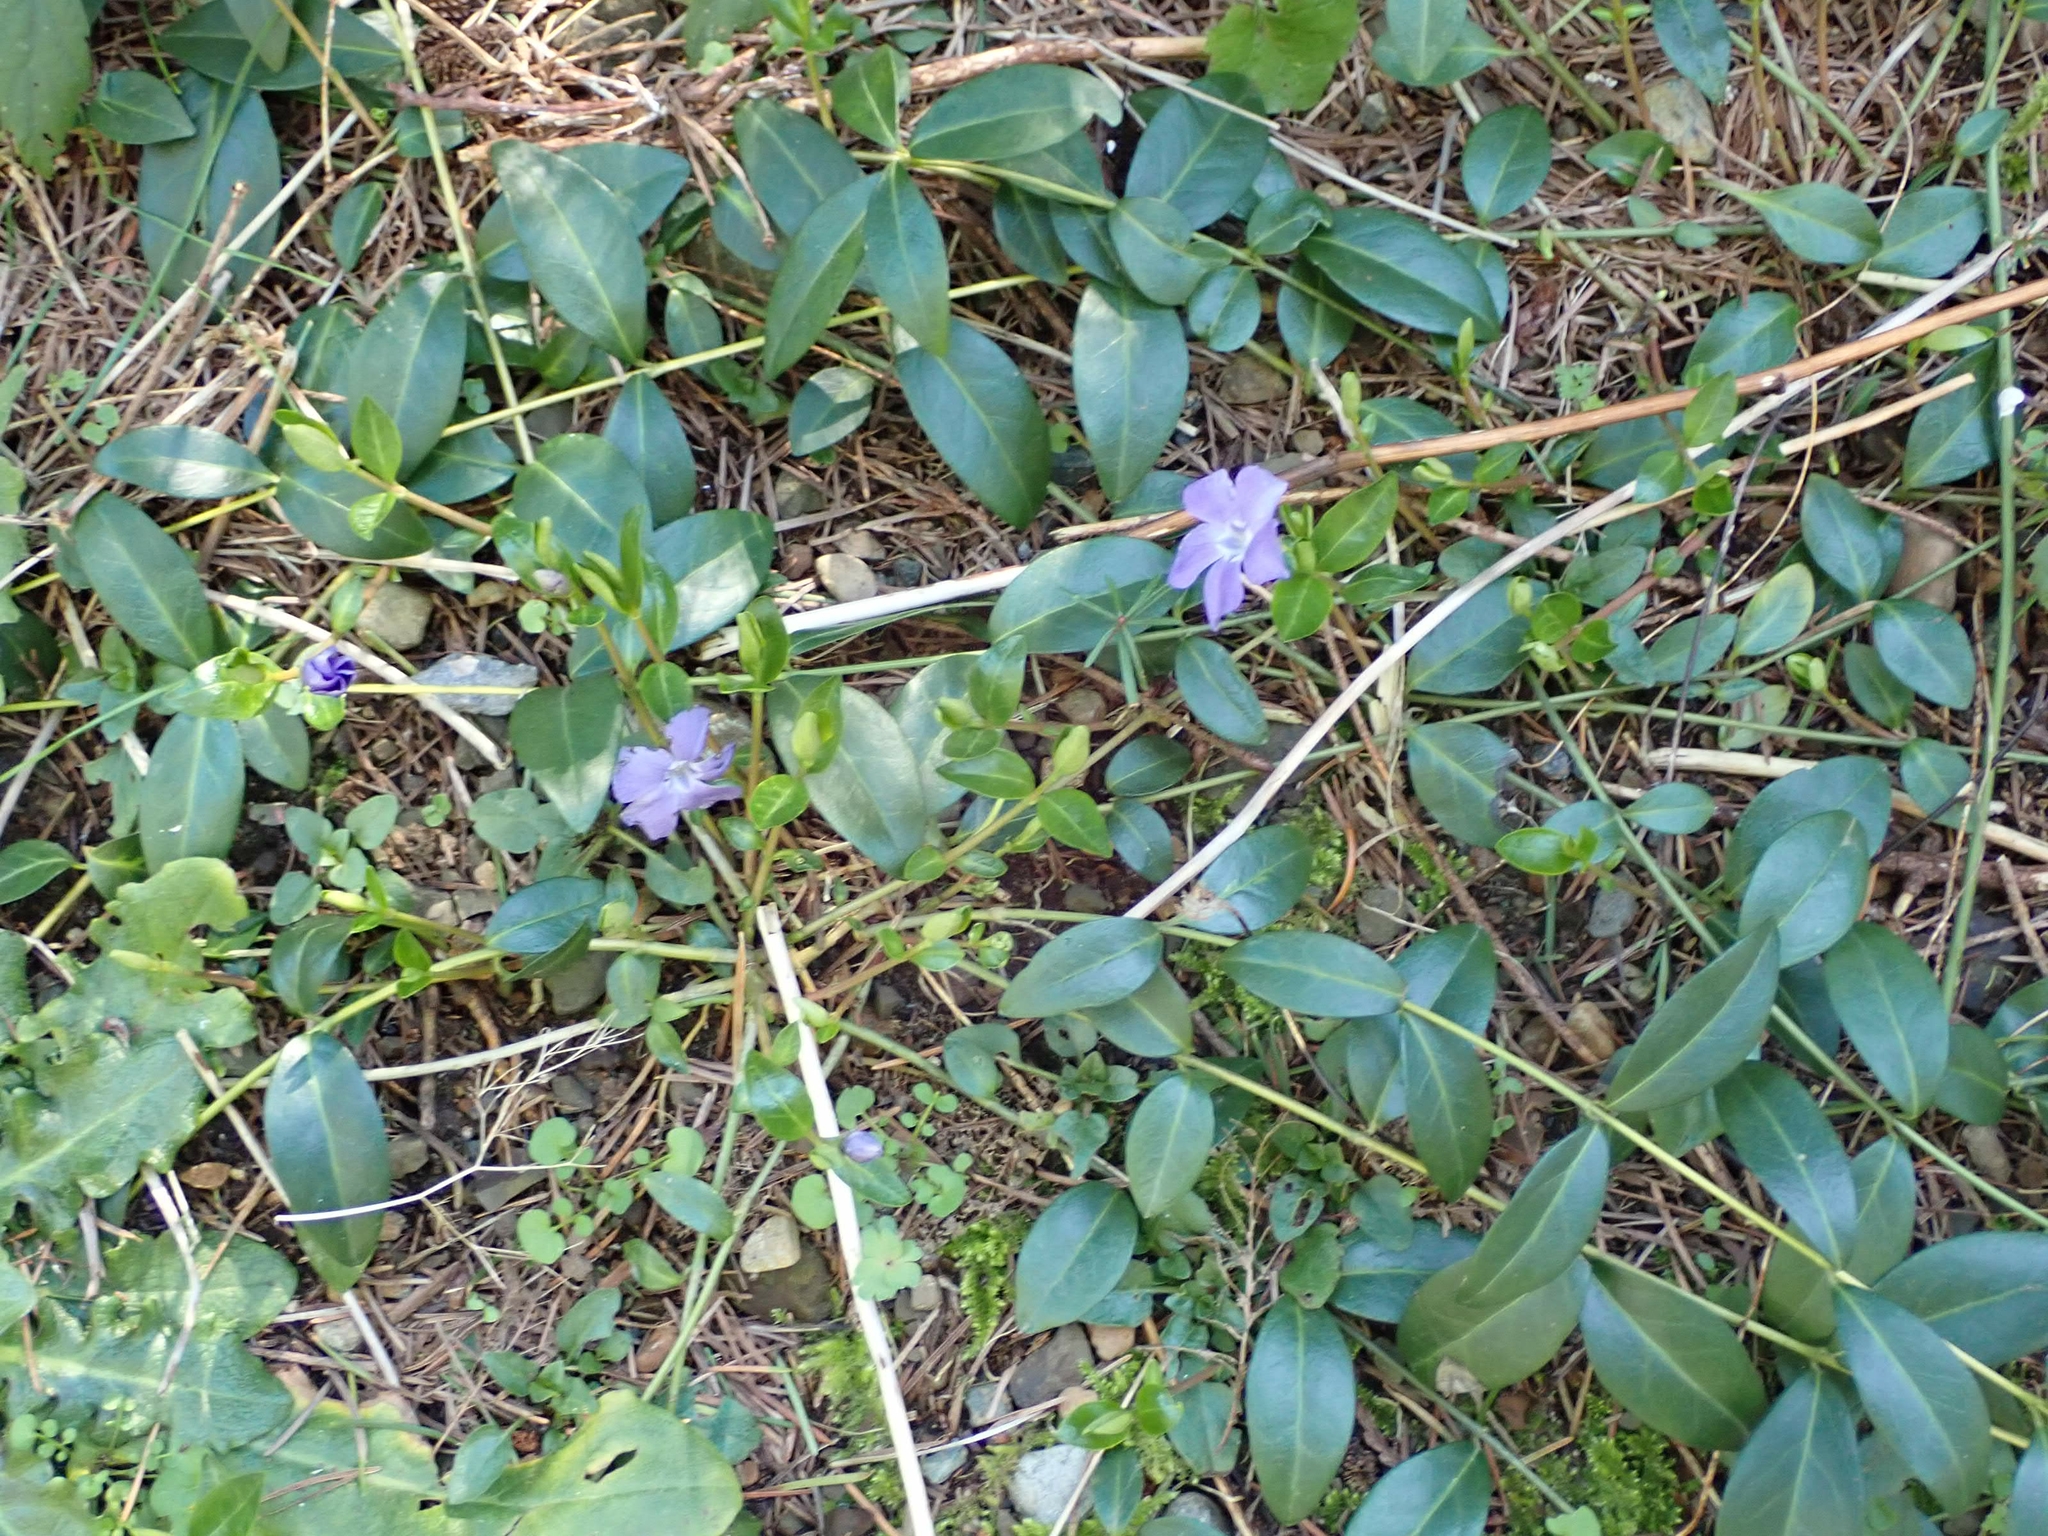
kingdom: Plantae
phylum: Tracheophyta
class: Magnoliopsida
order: Gentianales
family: Apocynaceae
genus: Vinca
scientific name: Vinca minor
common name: Lesser periwinkle
